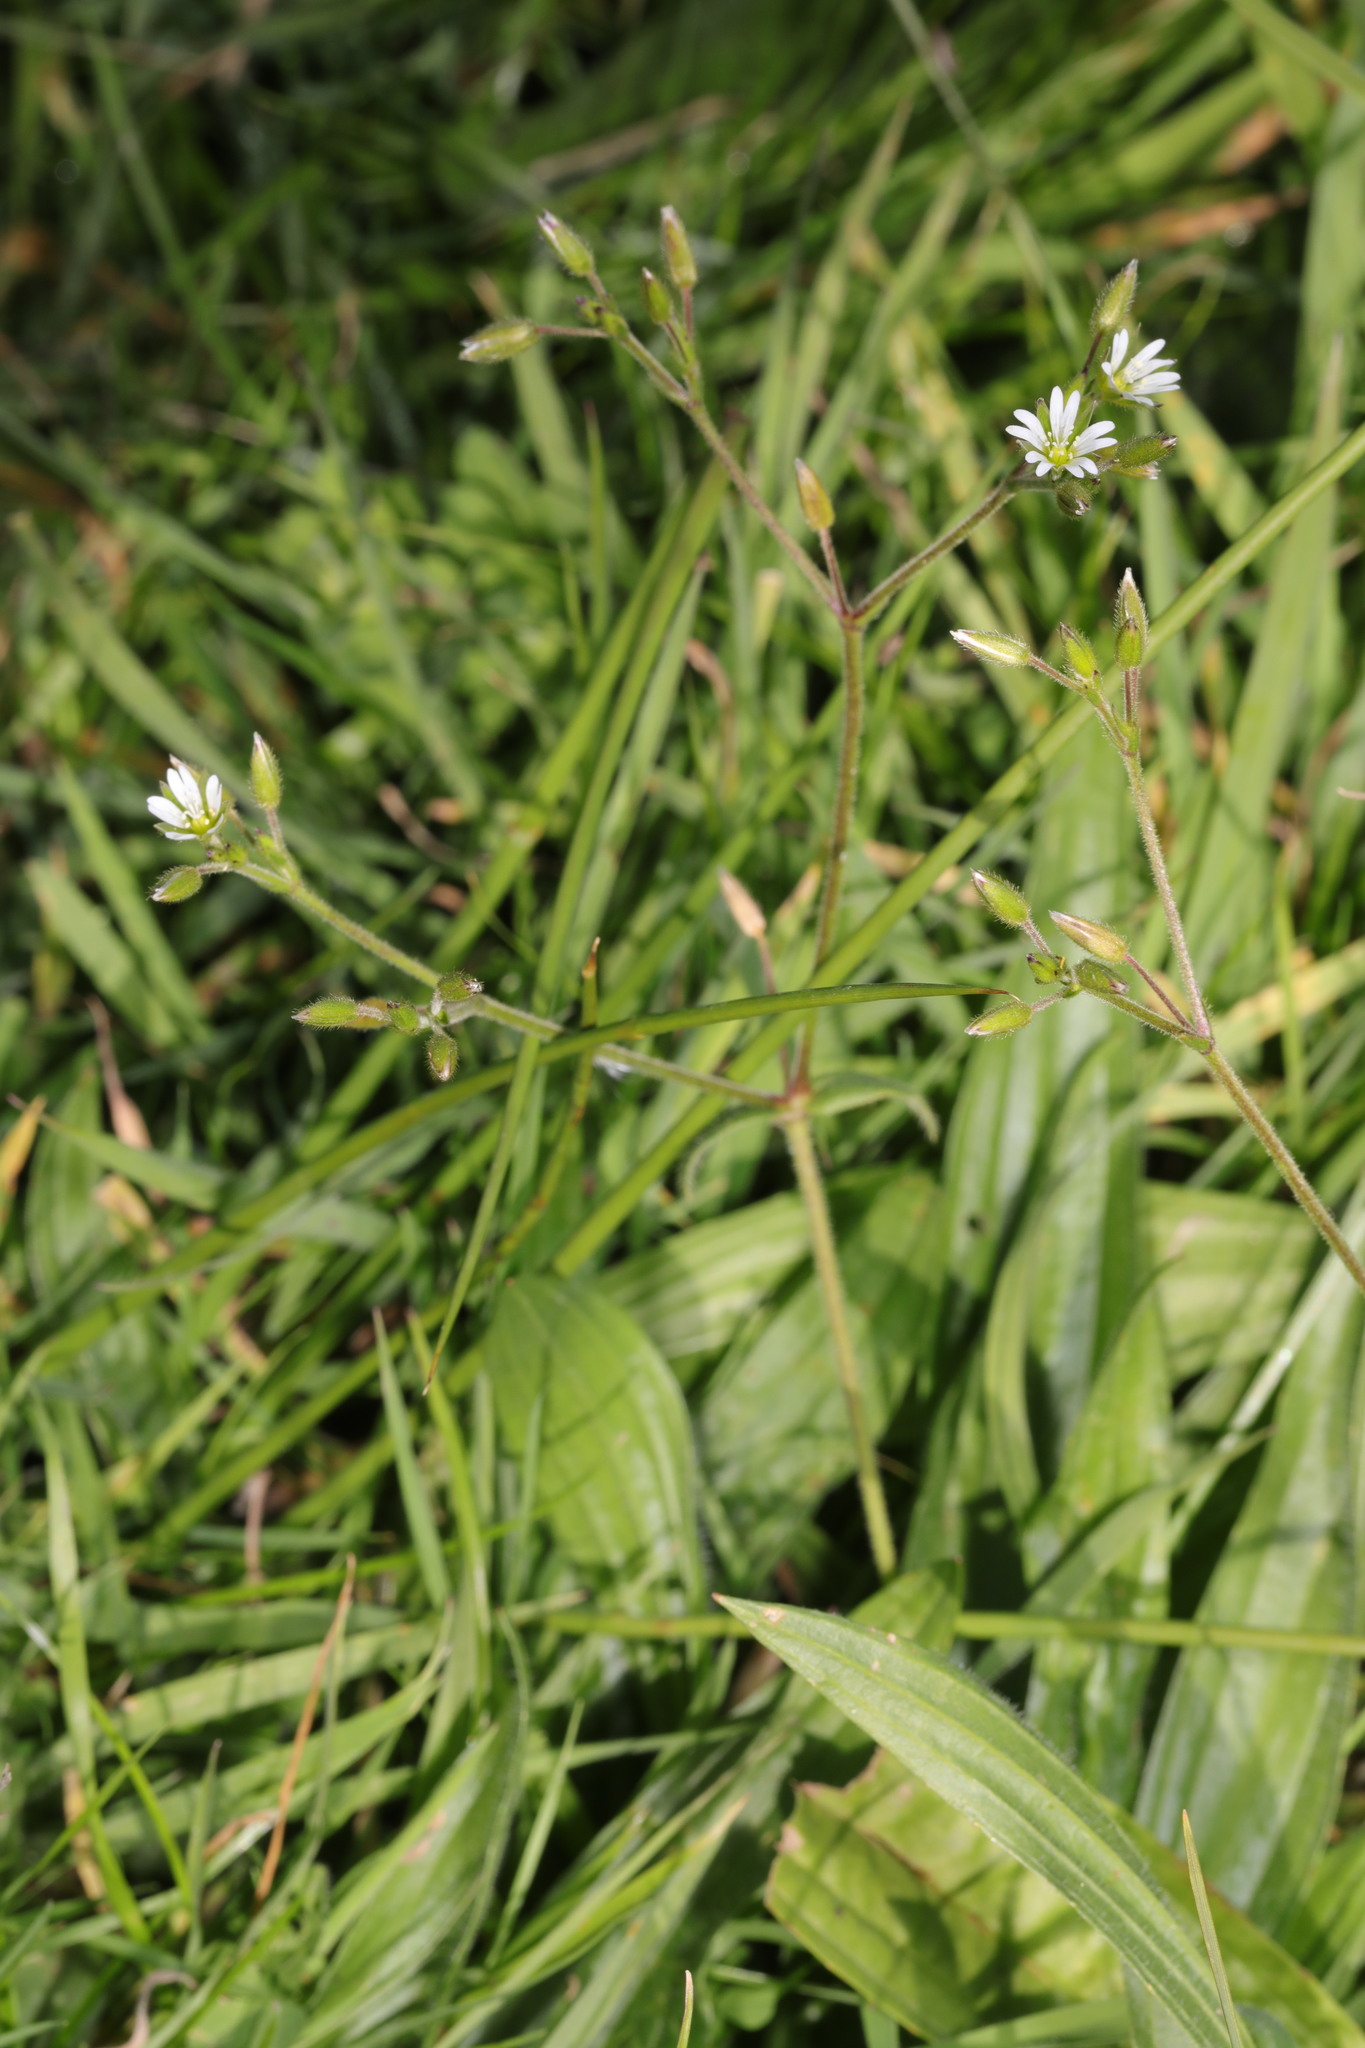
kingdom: Plantae
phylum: Tracheophyta
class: Magnoliopsida
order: Caryophyllales
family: Caryophyllaceae
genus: Cerastium
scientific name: Cerastium fontanum
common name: Common mouse-ear
